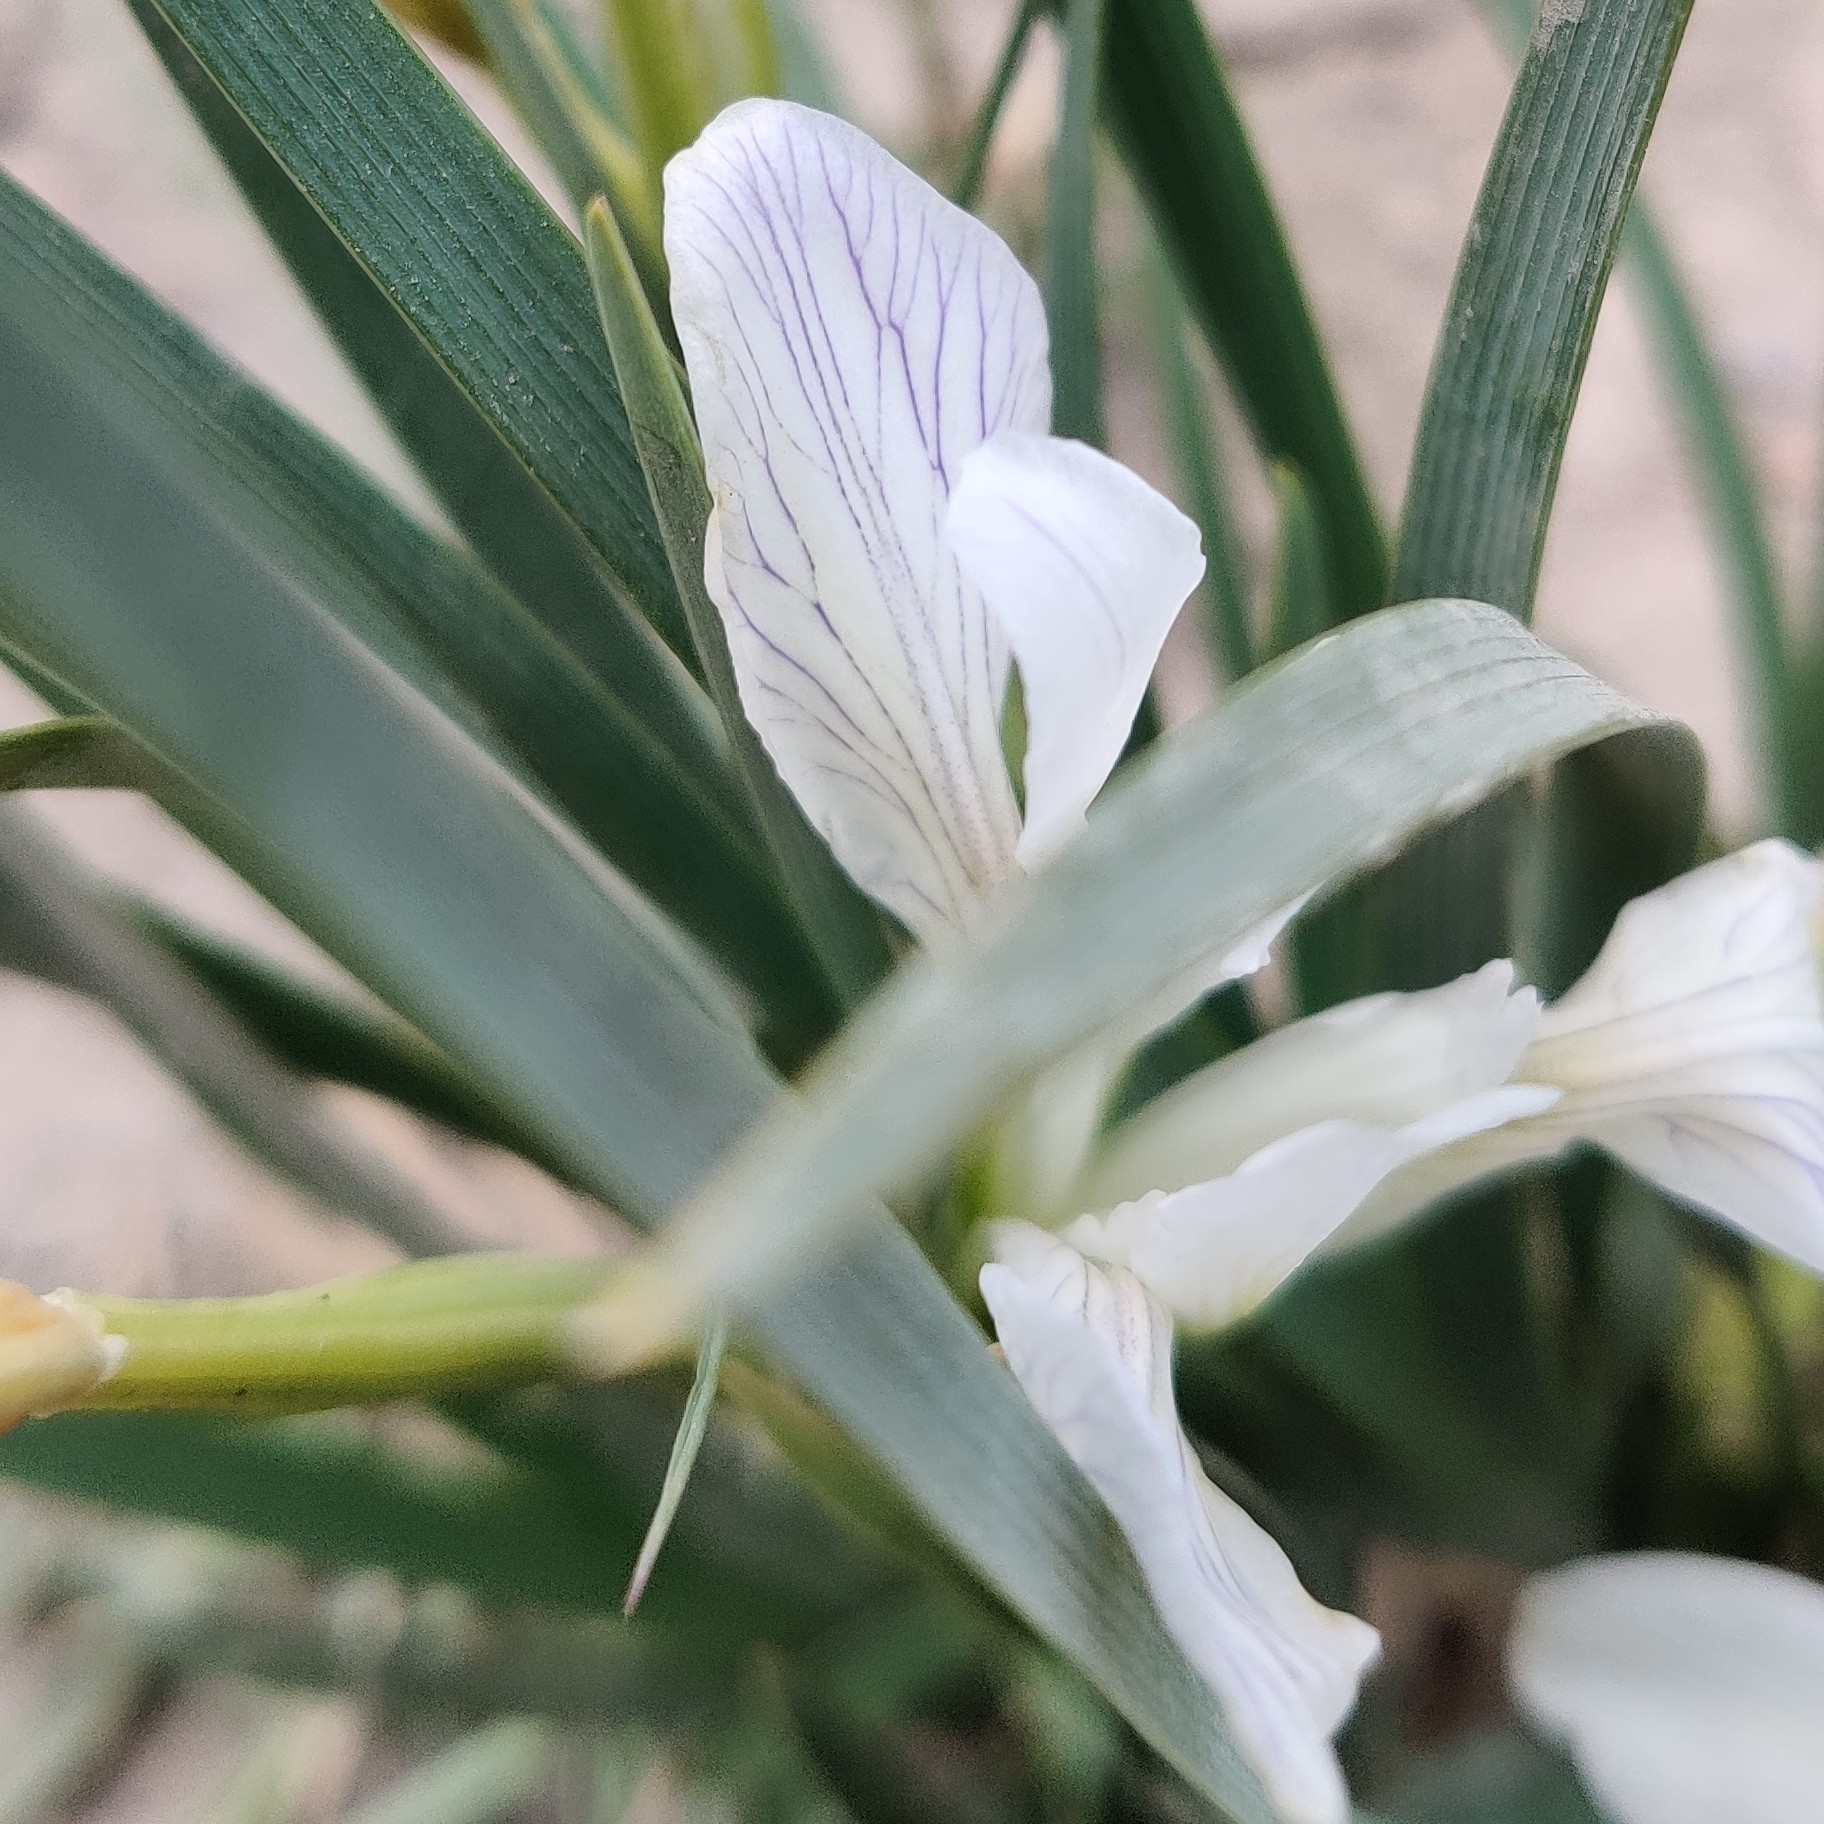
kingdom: Plantae
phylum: Tracheophyta
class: Liliopsida
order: Asparagales
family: Iridaceae
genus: Iris
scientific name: Iris lactea
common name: White-flower chinese iris
